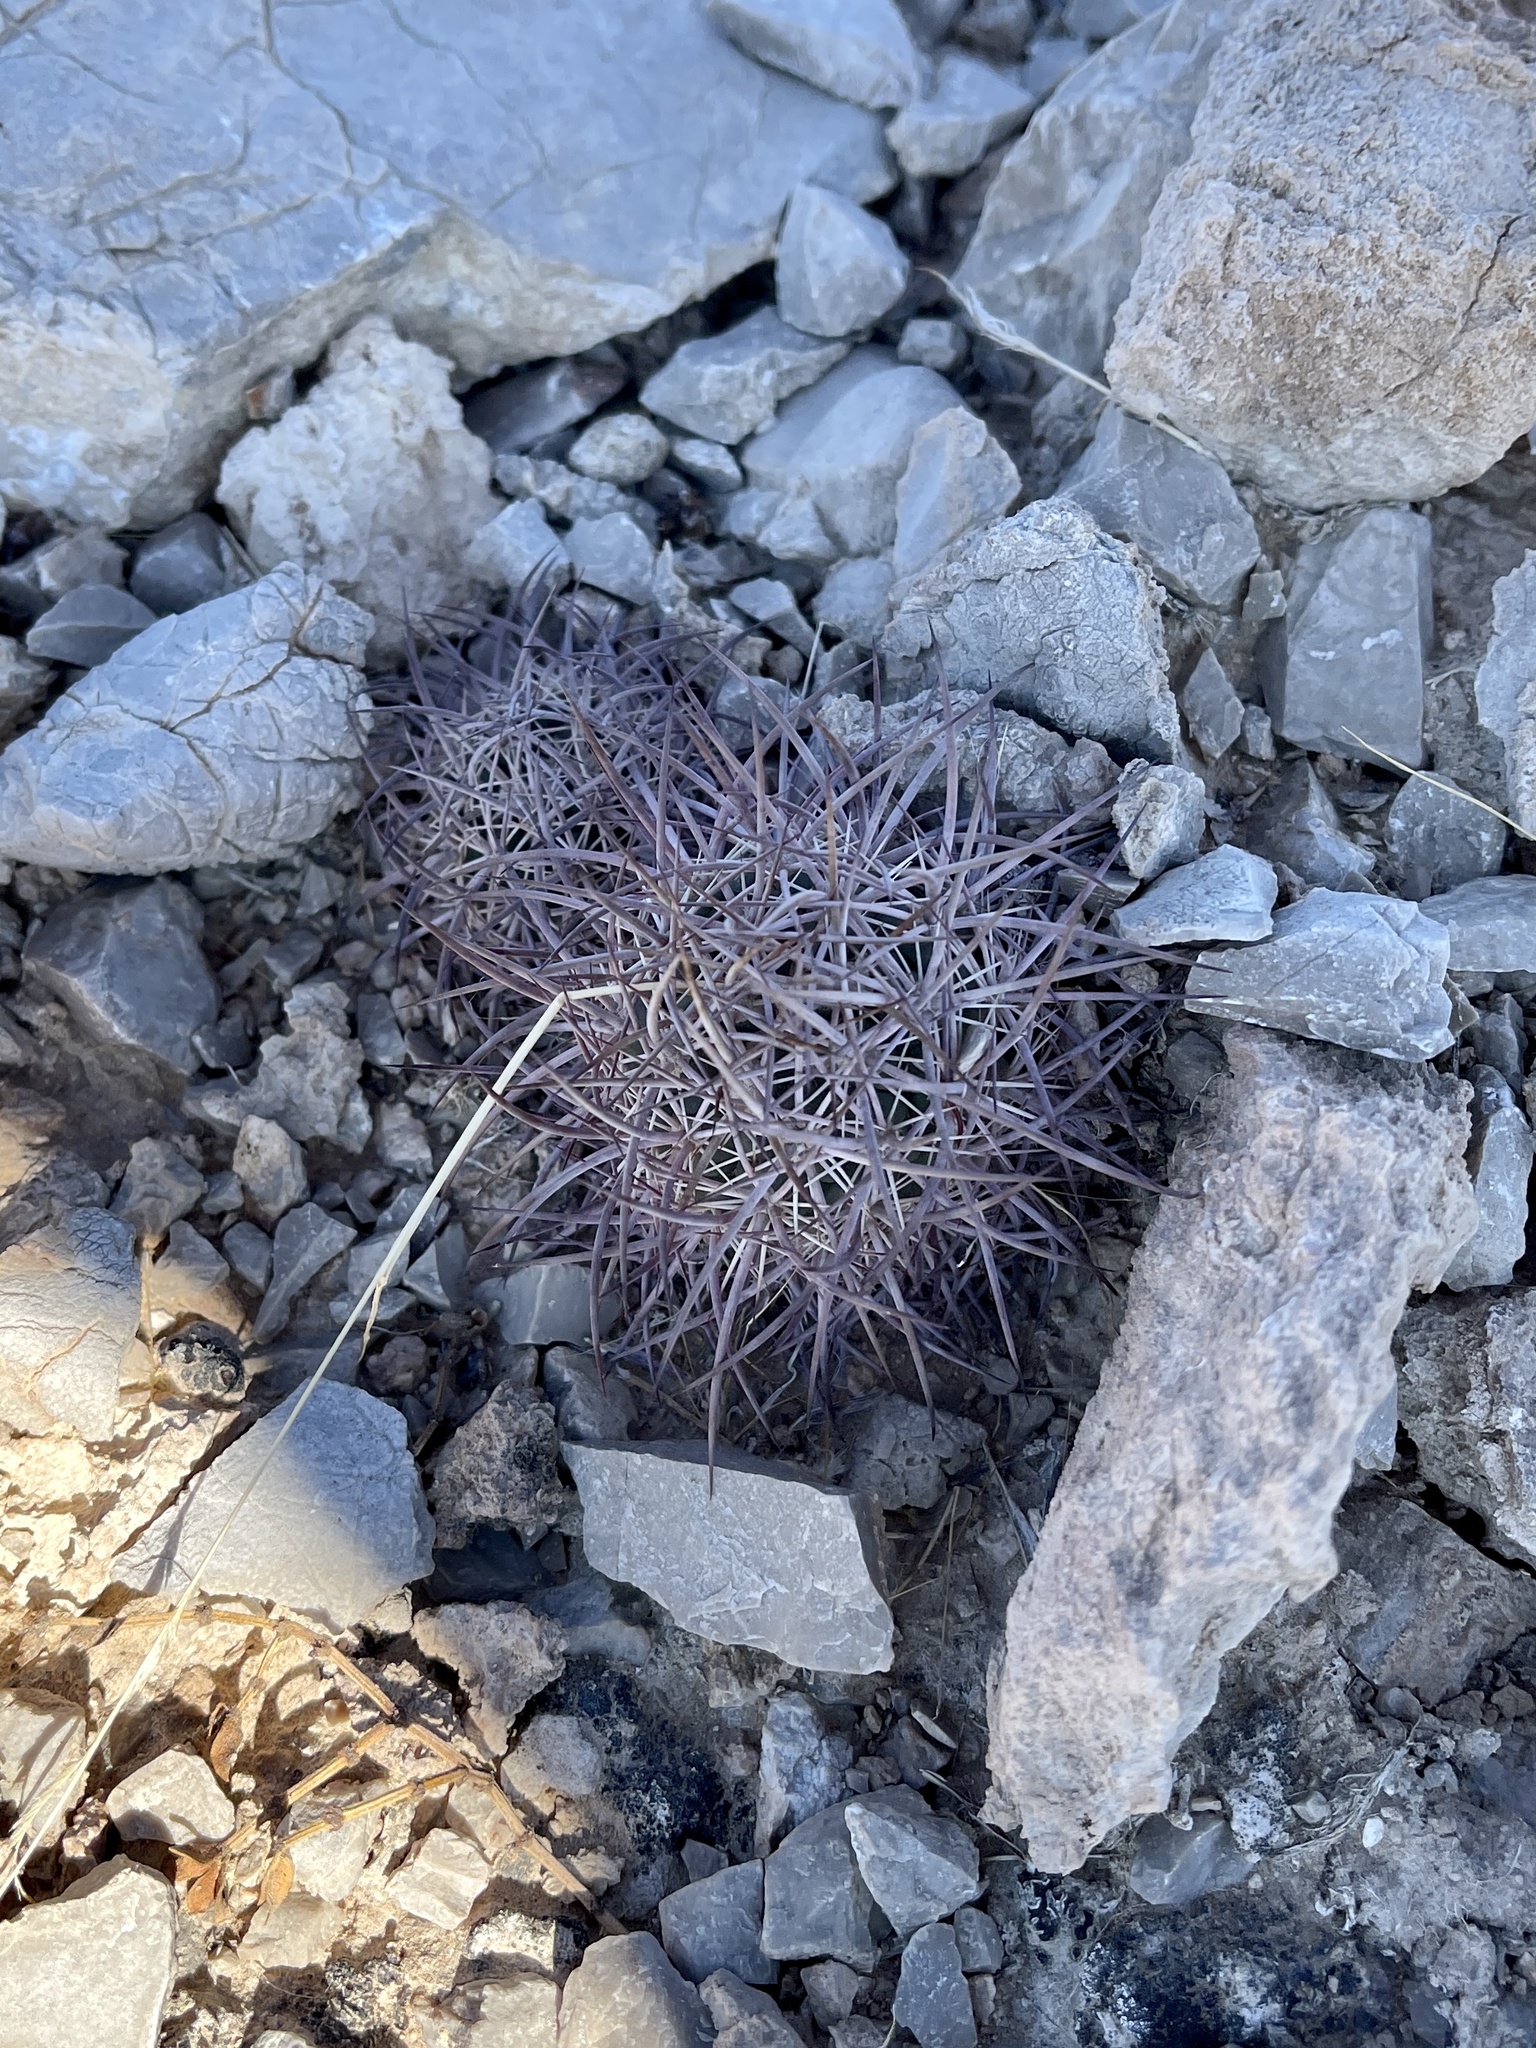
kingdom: Plantae
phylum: Tracheophyta
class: Magnoliopsida
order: Caryophyllales
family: Cactaceae
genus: Sclerocactus
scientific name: Sclerocactus johnsonii
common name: Eight-spine fishhook cactus
